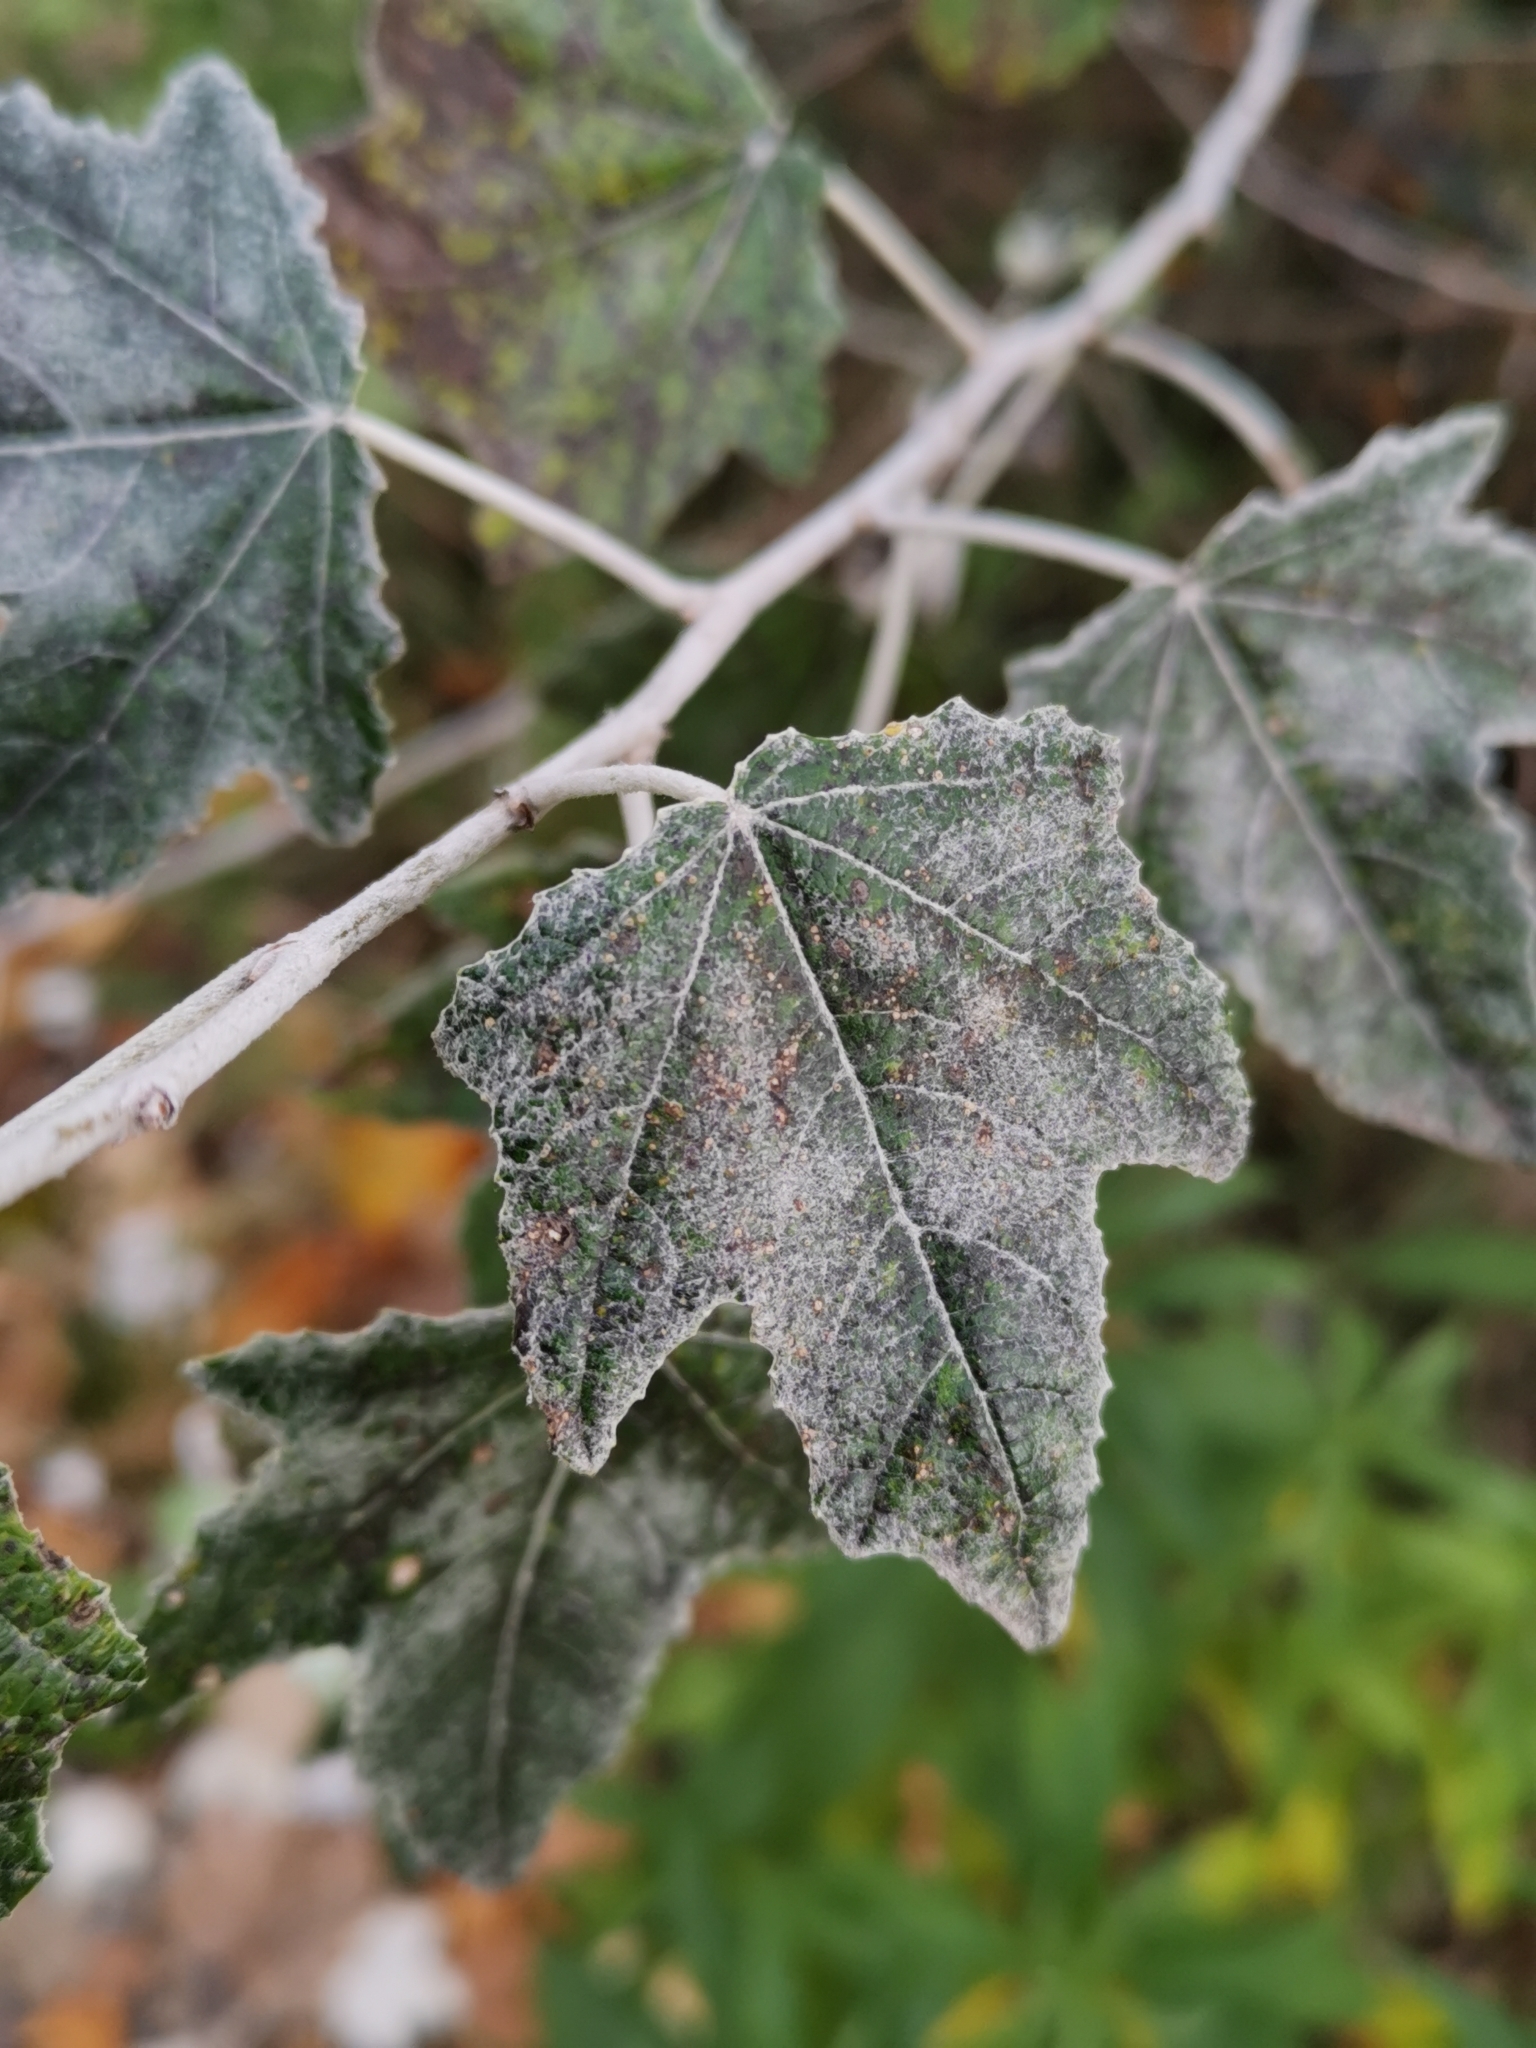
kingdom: Plantae
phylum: Tracheophyta
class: Magnoliopsida
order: Malpighiales
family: Salicaceae
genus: Populus
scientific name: Populus alba
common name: White poplar
